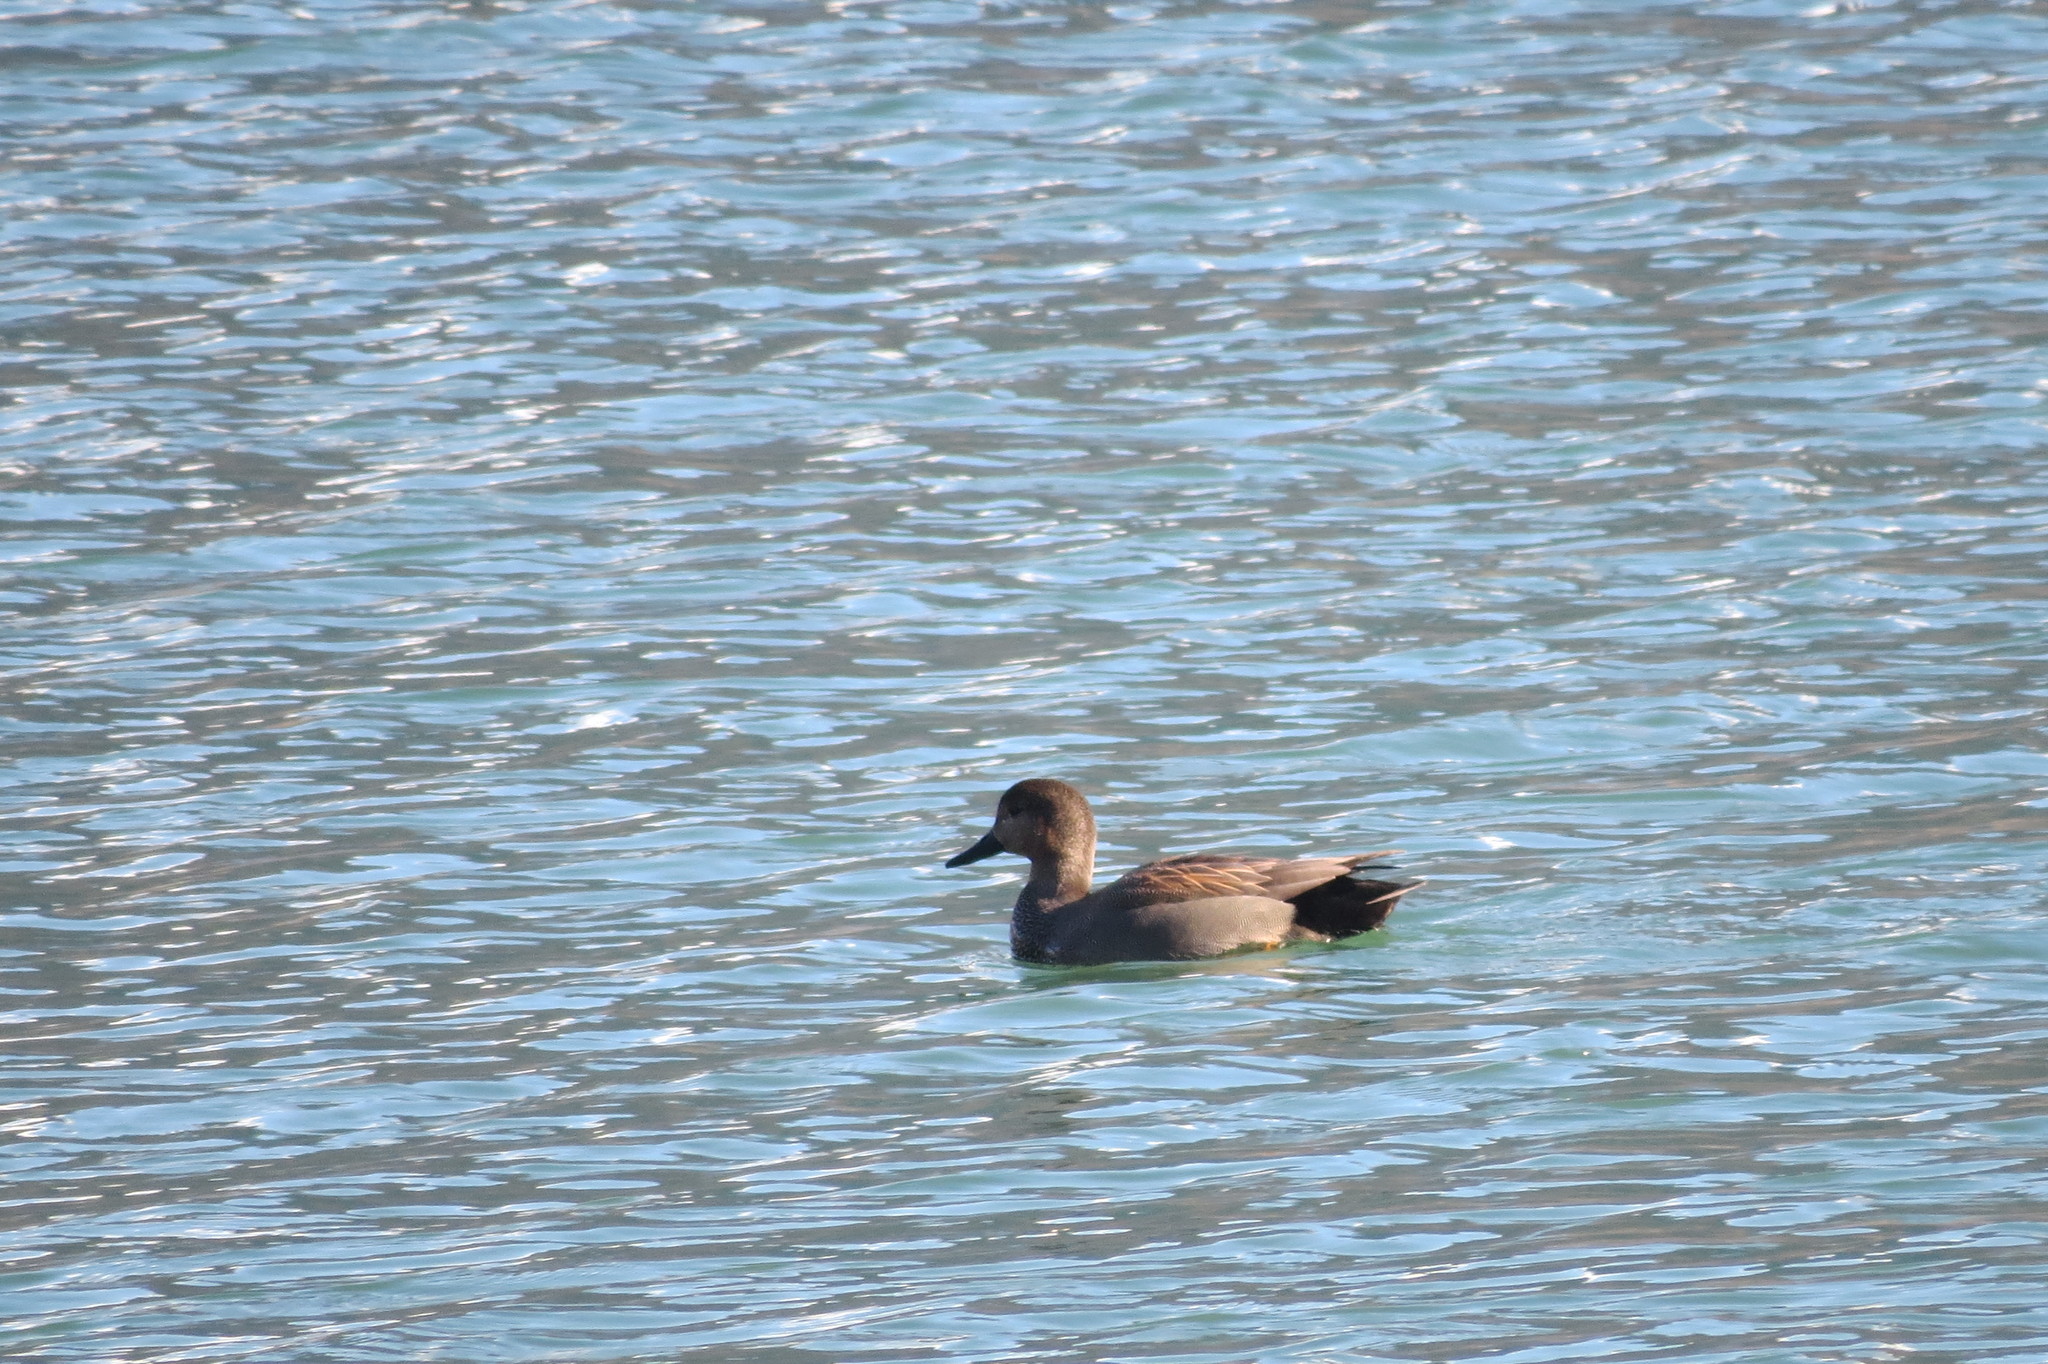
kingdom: Animalia
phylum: Chordata
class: Aves
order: Anseriformes
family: Anatidae
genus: Mareca
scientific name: Mareca strepera
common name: Gadwall
